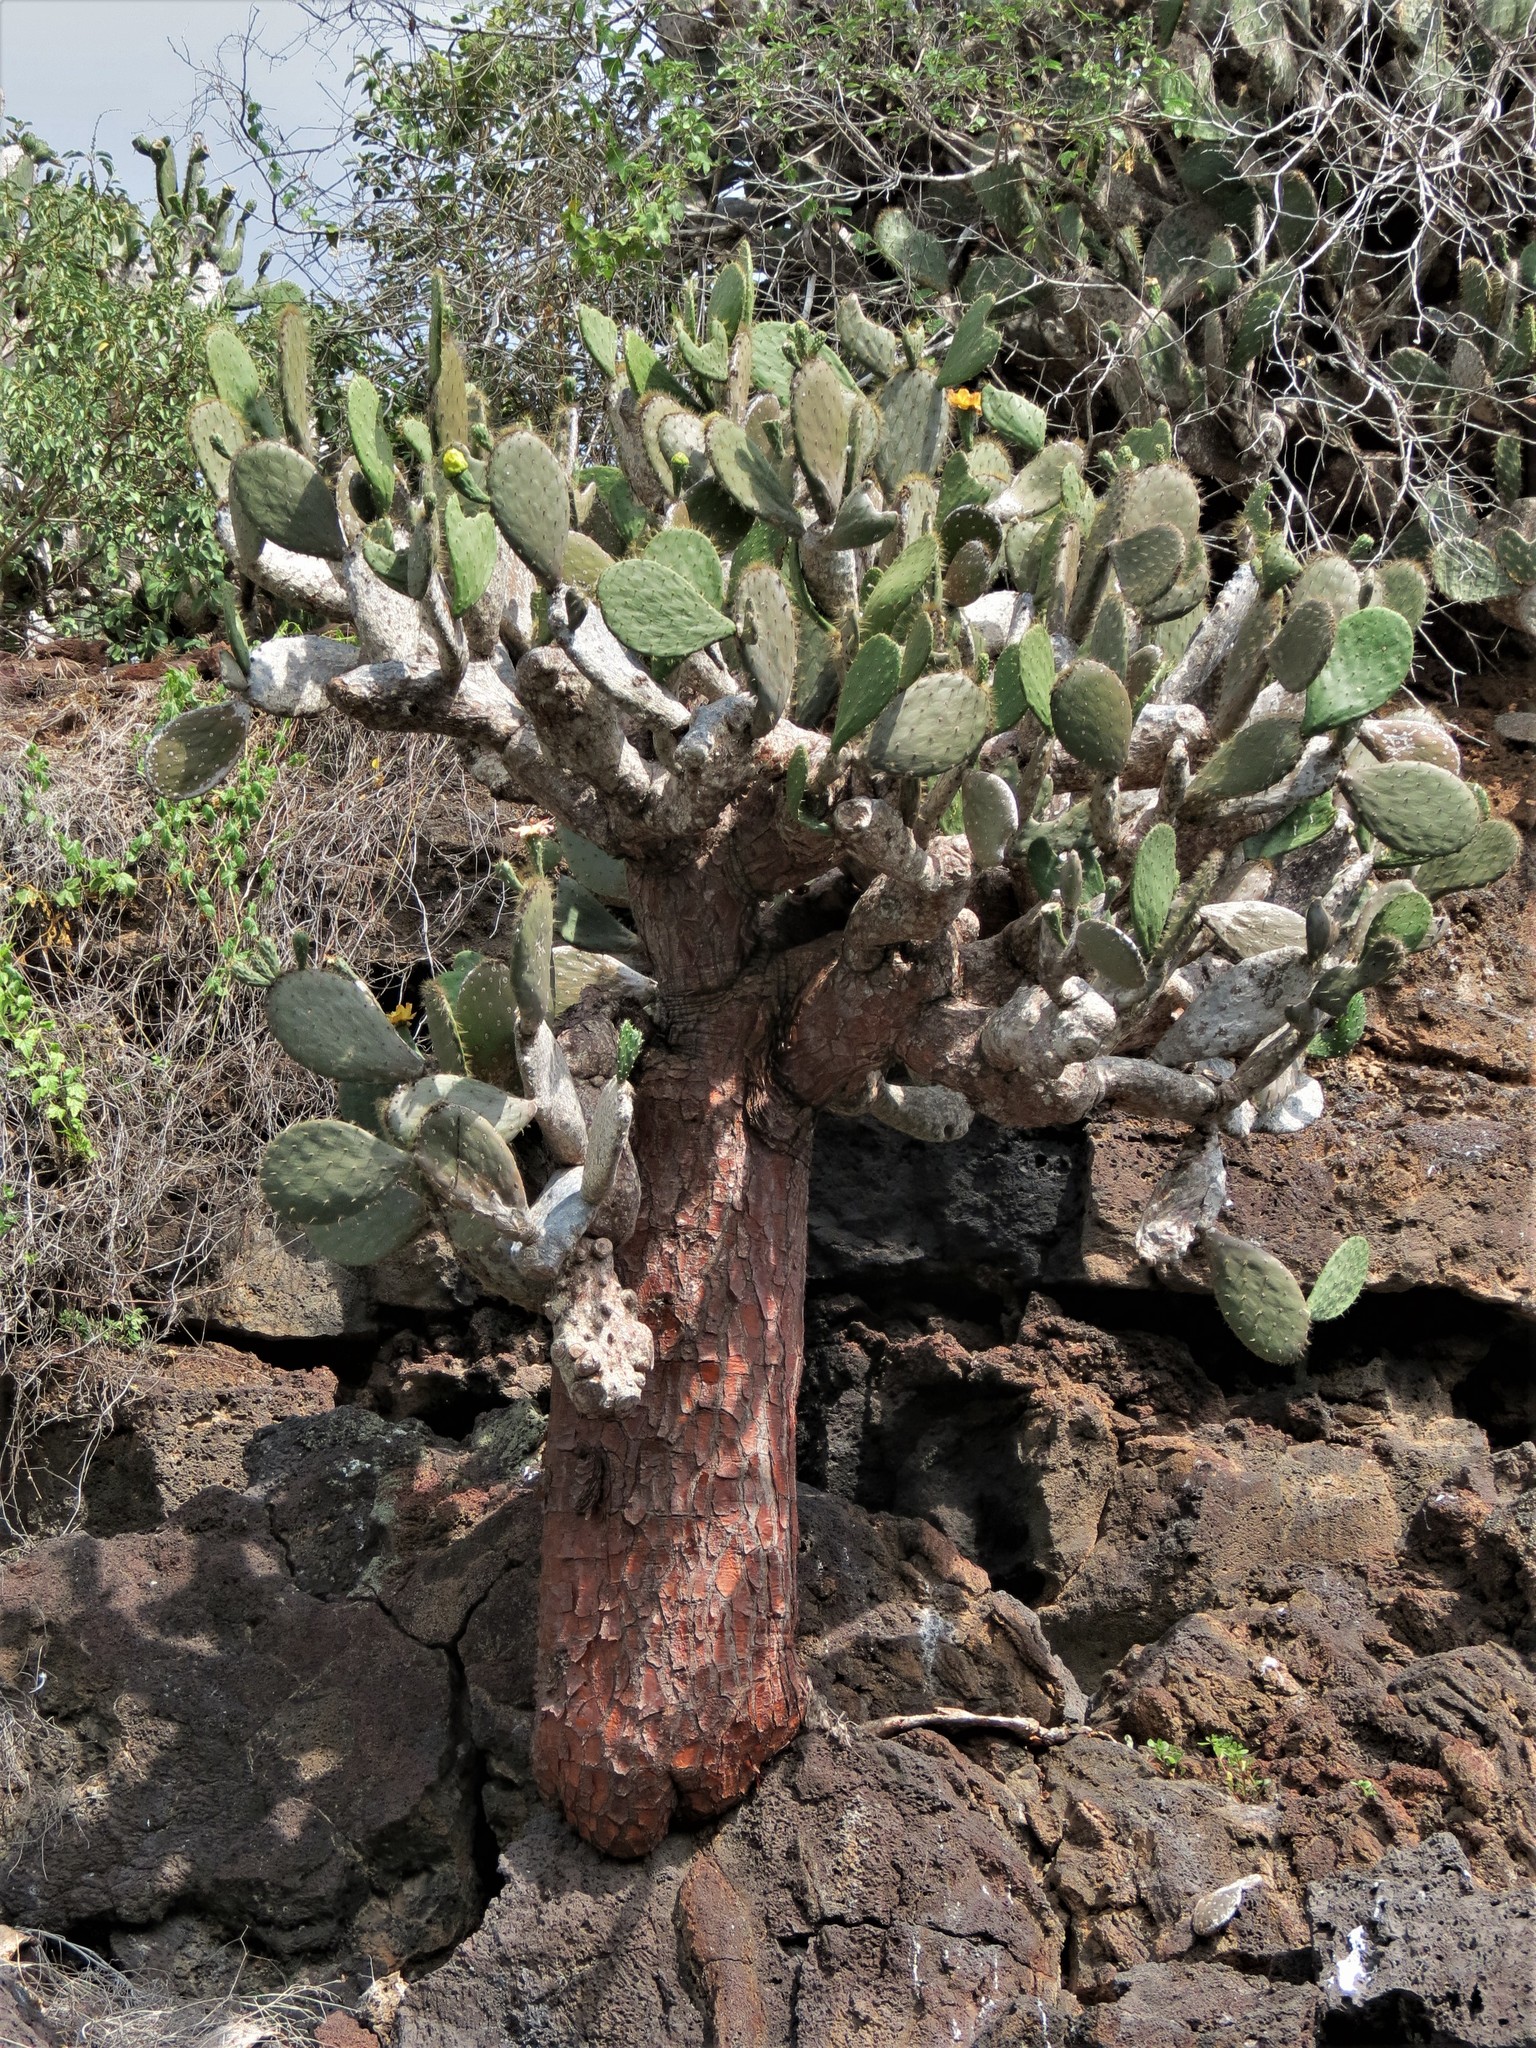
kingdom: Plantae
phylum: Tracheophyta
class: Magnoliopsida
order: Caryophyllales
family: Cactaceae
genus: Opuntia
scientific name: Opuntia galapageia
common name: Galápagos prickly pear
